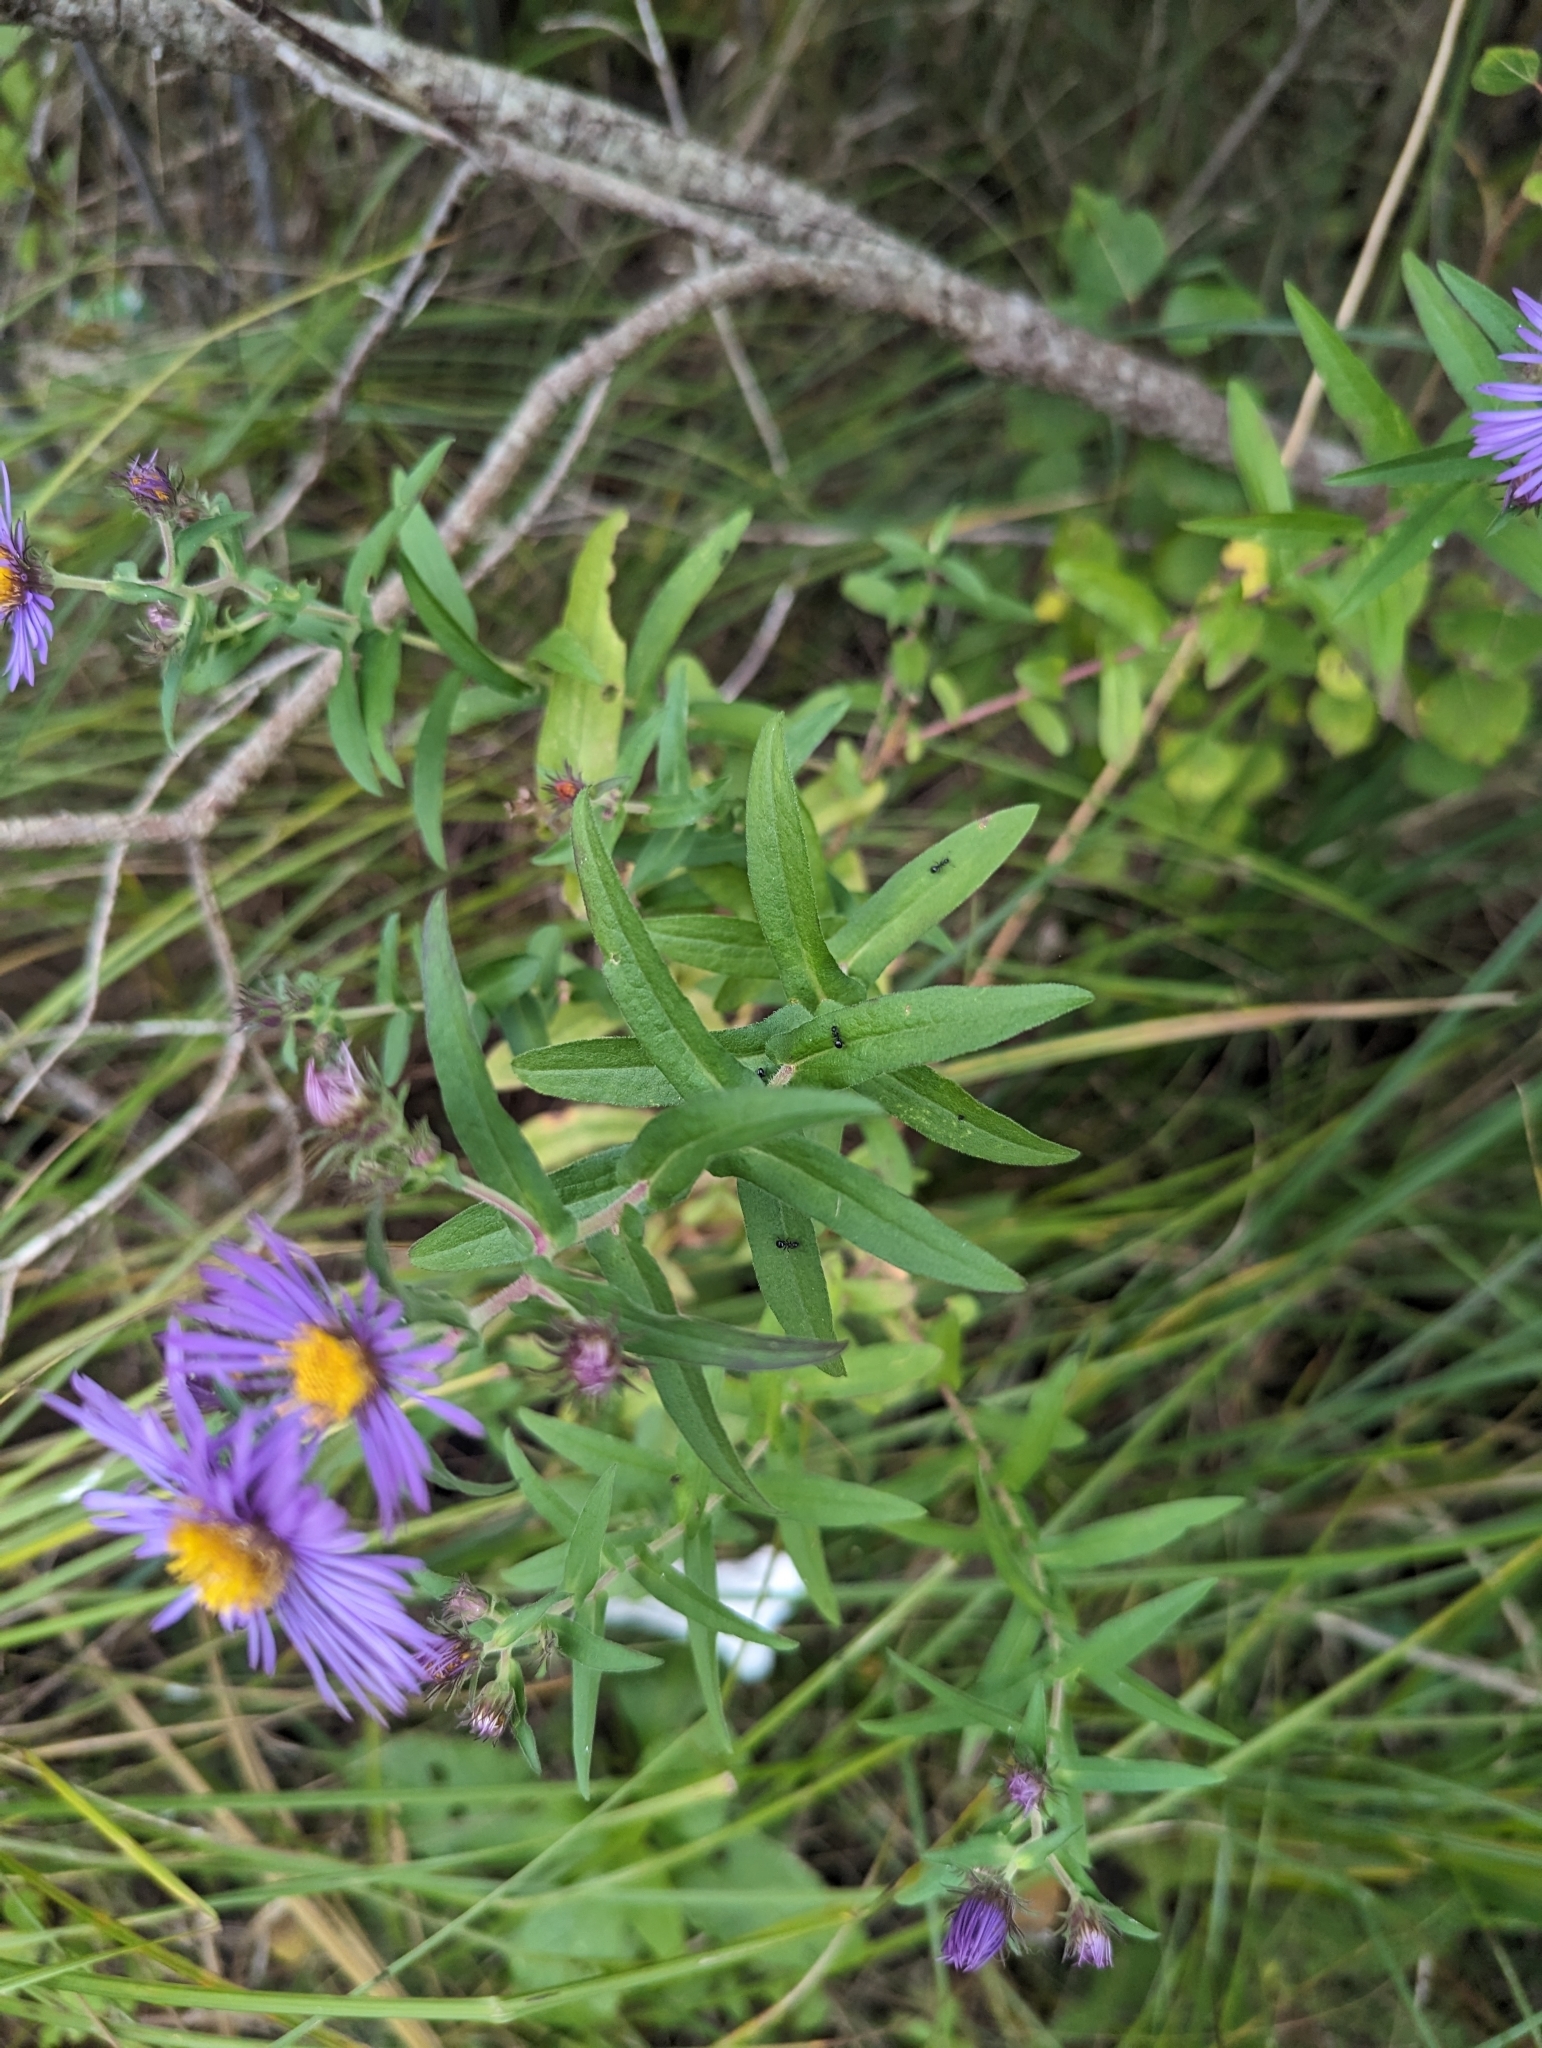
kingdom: Plantae
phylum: Tracheophyta
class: Magnoliopsida
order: Asterales
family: Asteraceae
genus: Symphyotrichum
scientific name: Symphyotrichum novae-angliae
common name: Michaelmas daisy
